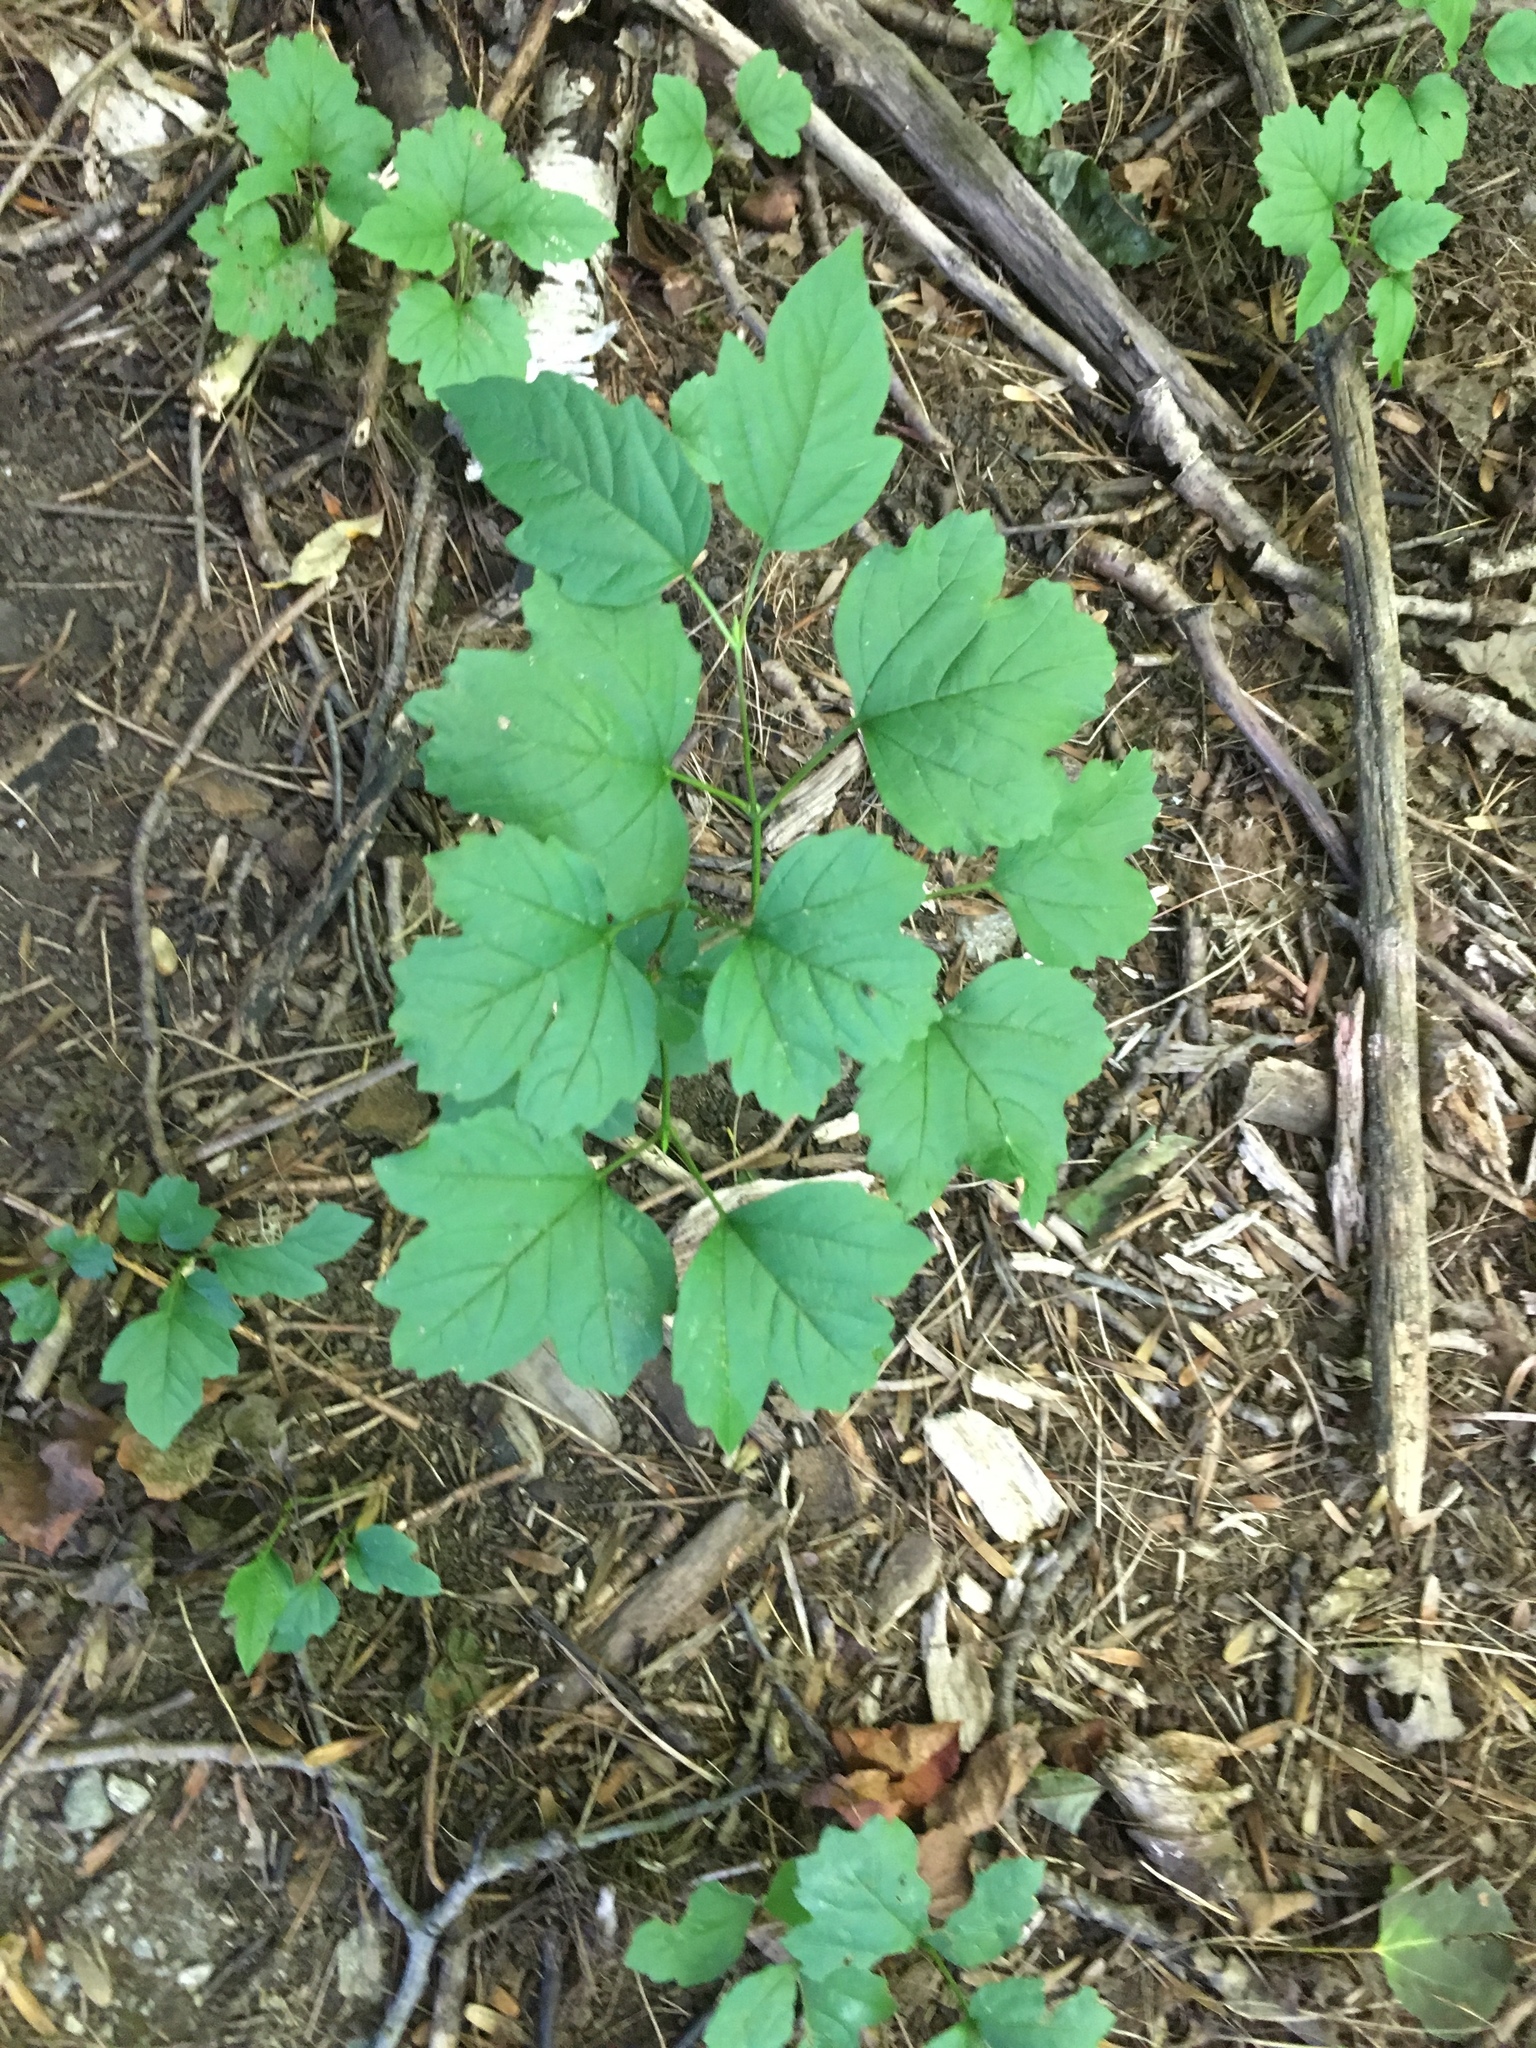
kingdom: Plantae
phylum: Tracheophyta
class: Magnoliopsida
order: Dipsacales
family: Viburnaceae
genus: Viburnum
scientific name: Viburnum opulus
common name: Guelder-rose
